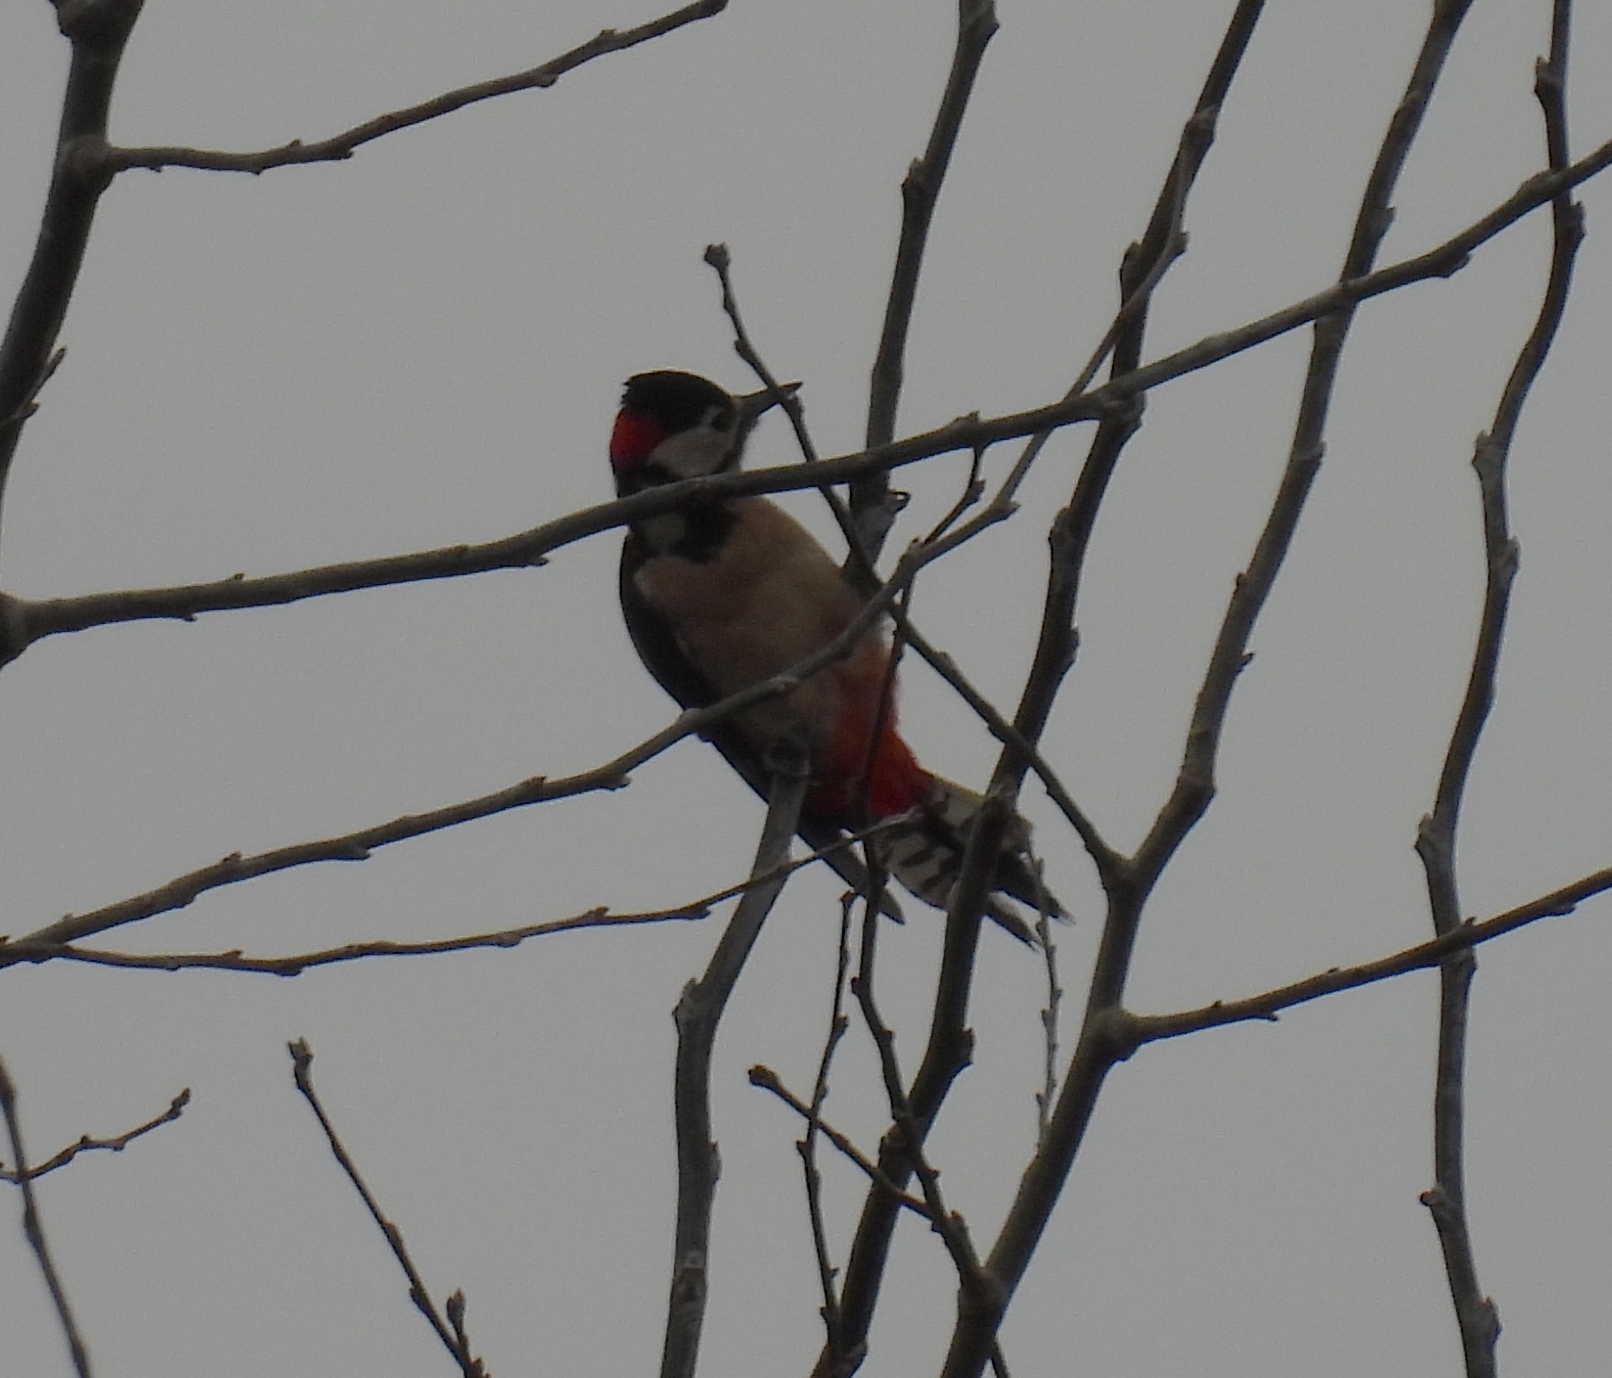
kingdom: Animalia
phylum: Chordata
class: Aves
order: Piciformes
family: Picidae
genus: Dendrocopos
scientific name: Dendrocopos major
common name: Great spotted woodpecker
